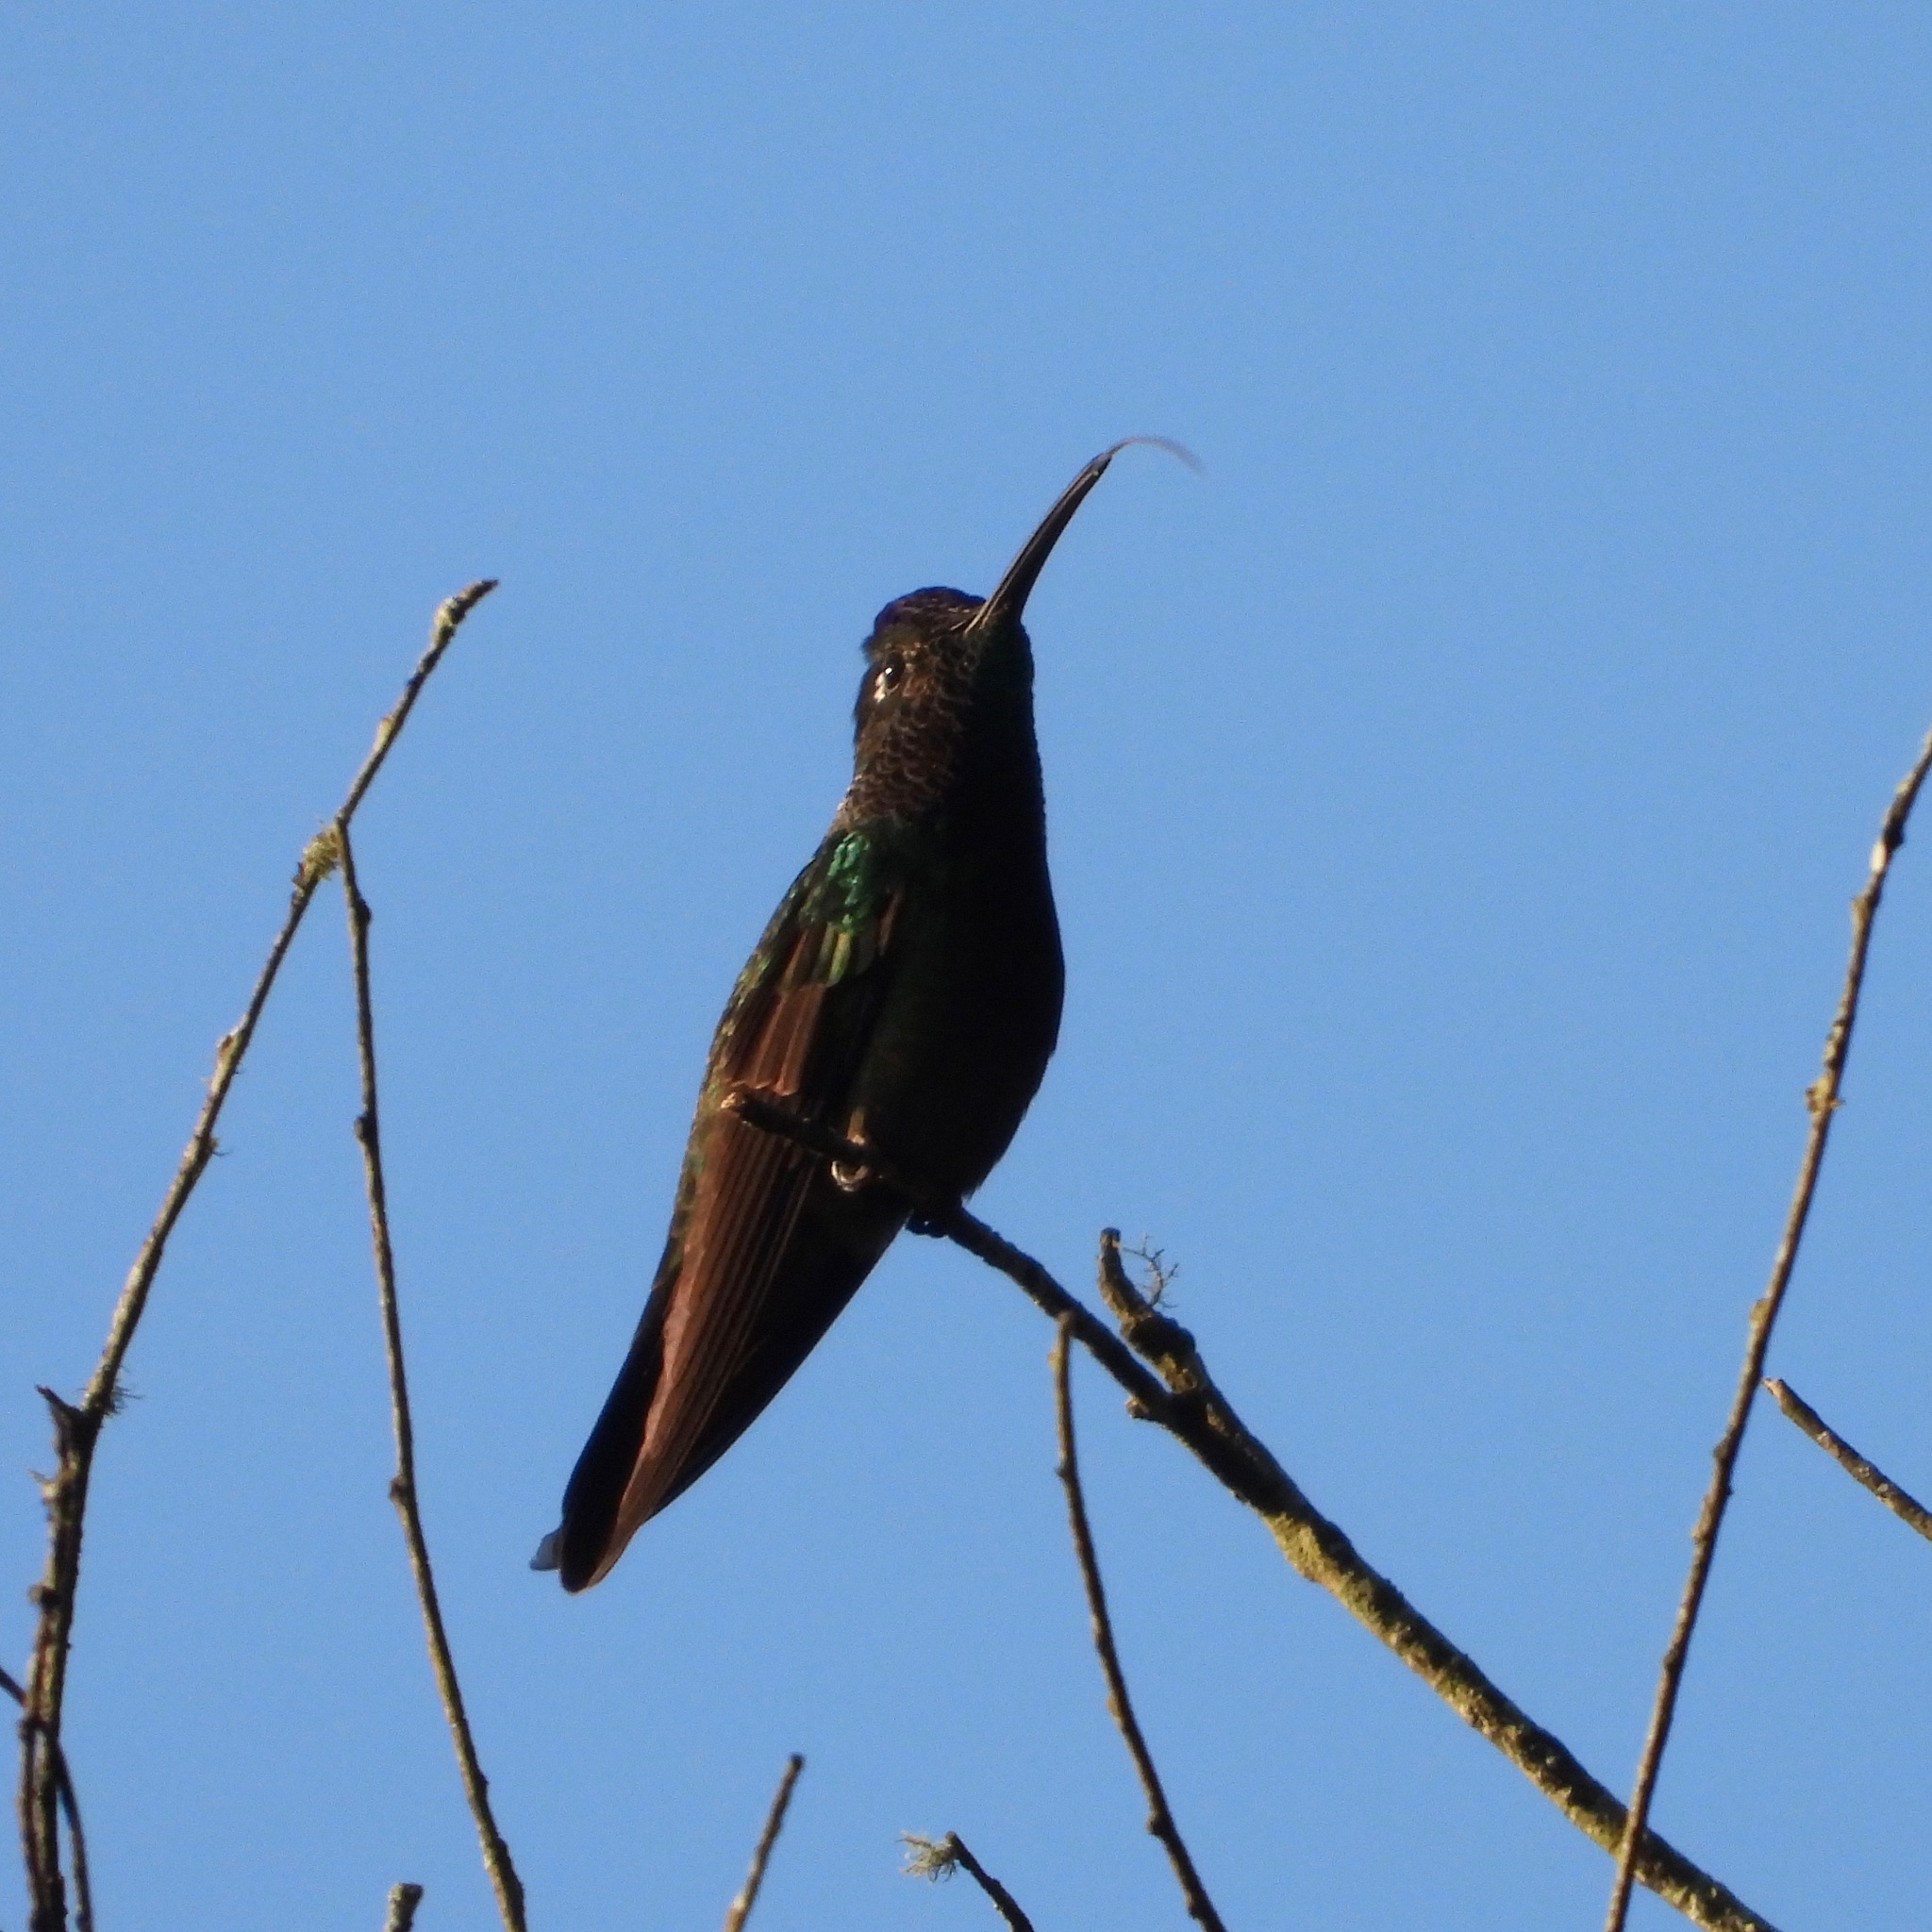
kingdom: Animalia
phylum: Chordata
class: Aves
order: Apodiformes
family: Trochilidae
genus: Eugenes
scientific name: Eugenes fulgens
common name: Magnificent hummingbird
